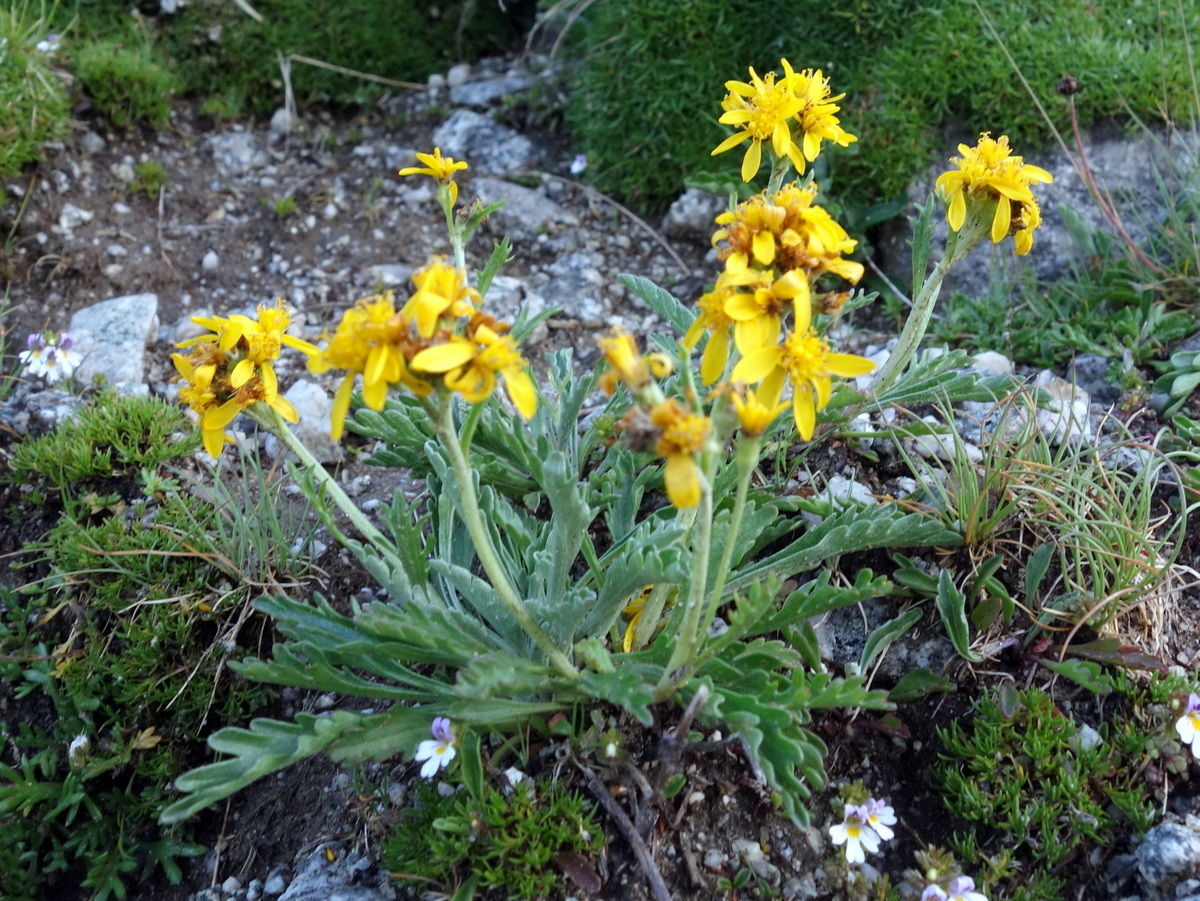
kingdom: Plantae
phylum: Tracheophyta
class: Magnoliopsida
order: Asterales
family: Asteraceae
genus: Jacobaea
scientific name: Jacobaea carniolica
